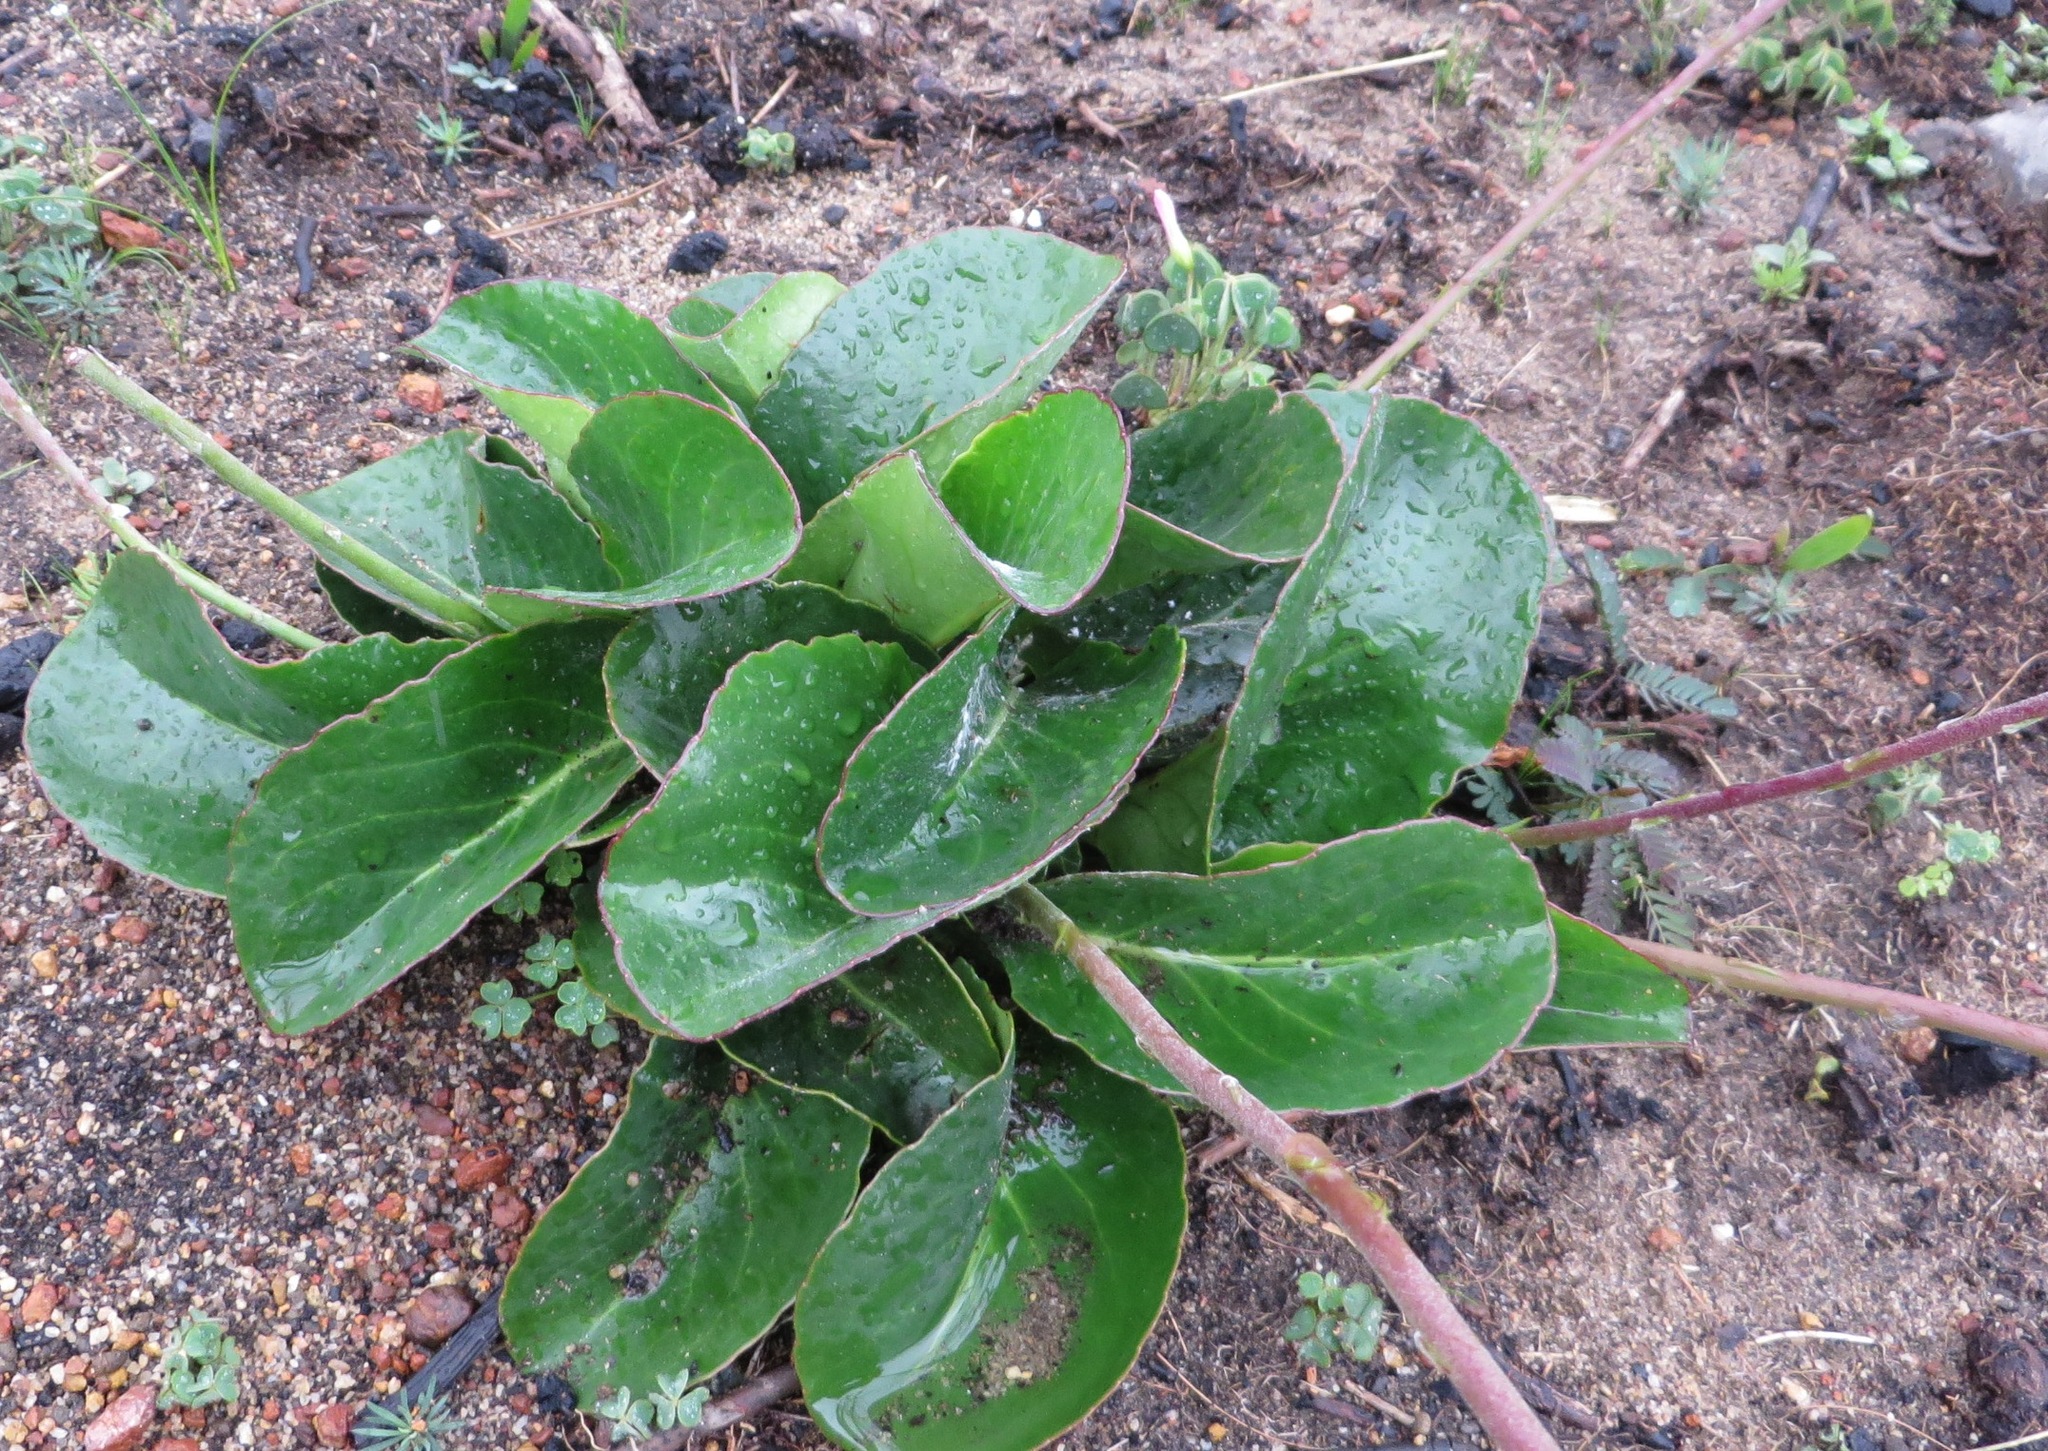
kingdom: Plantae
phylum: Tracheophyta
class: Magnoliopsida
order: Asterales
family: Asteraceae
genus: Gerbera
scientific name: Gerbera crocea
